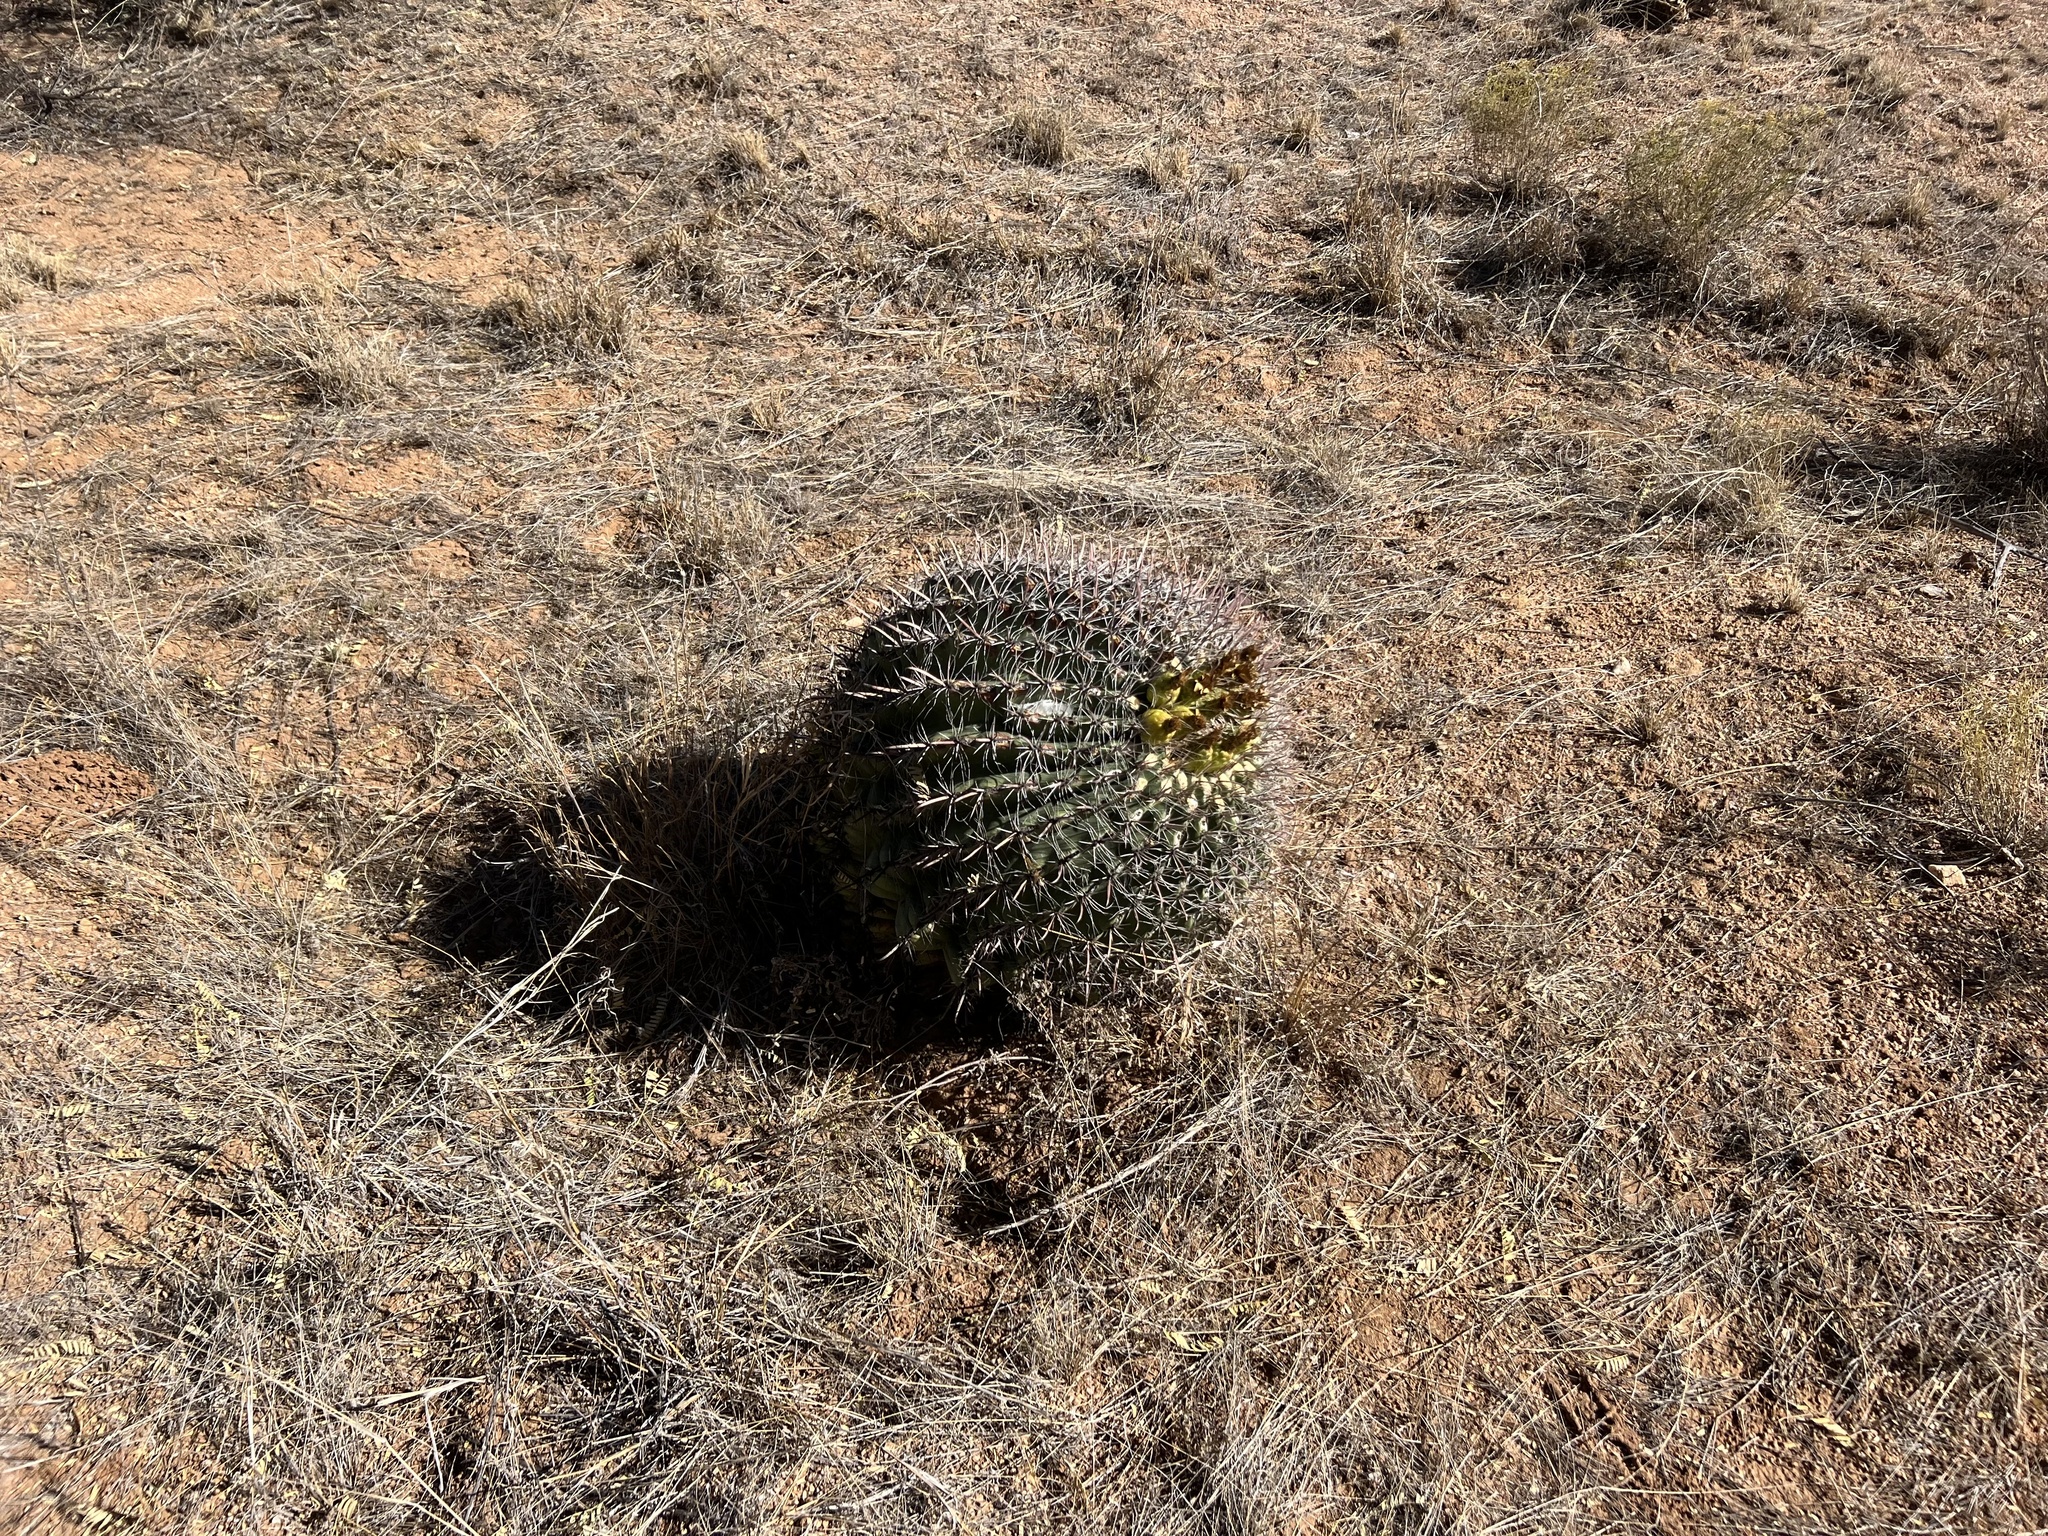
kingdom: Plantae
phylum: Tracheophyta
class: Magnoliopsida
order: Caryophyllales
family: Cactaceae
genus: Ferocactus
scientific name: Ferocactus wislizeni
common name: Candy barrel cactus
